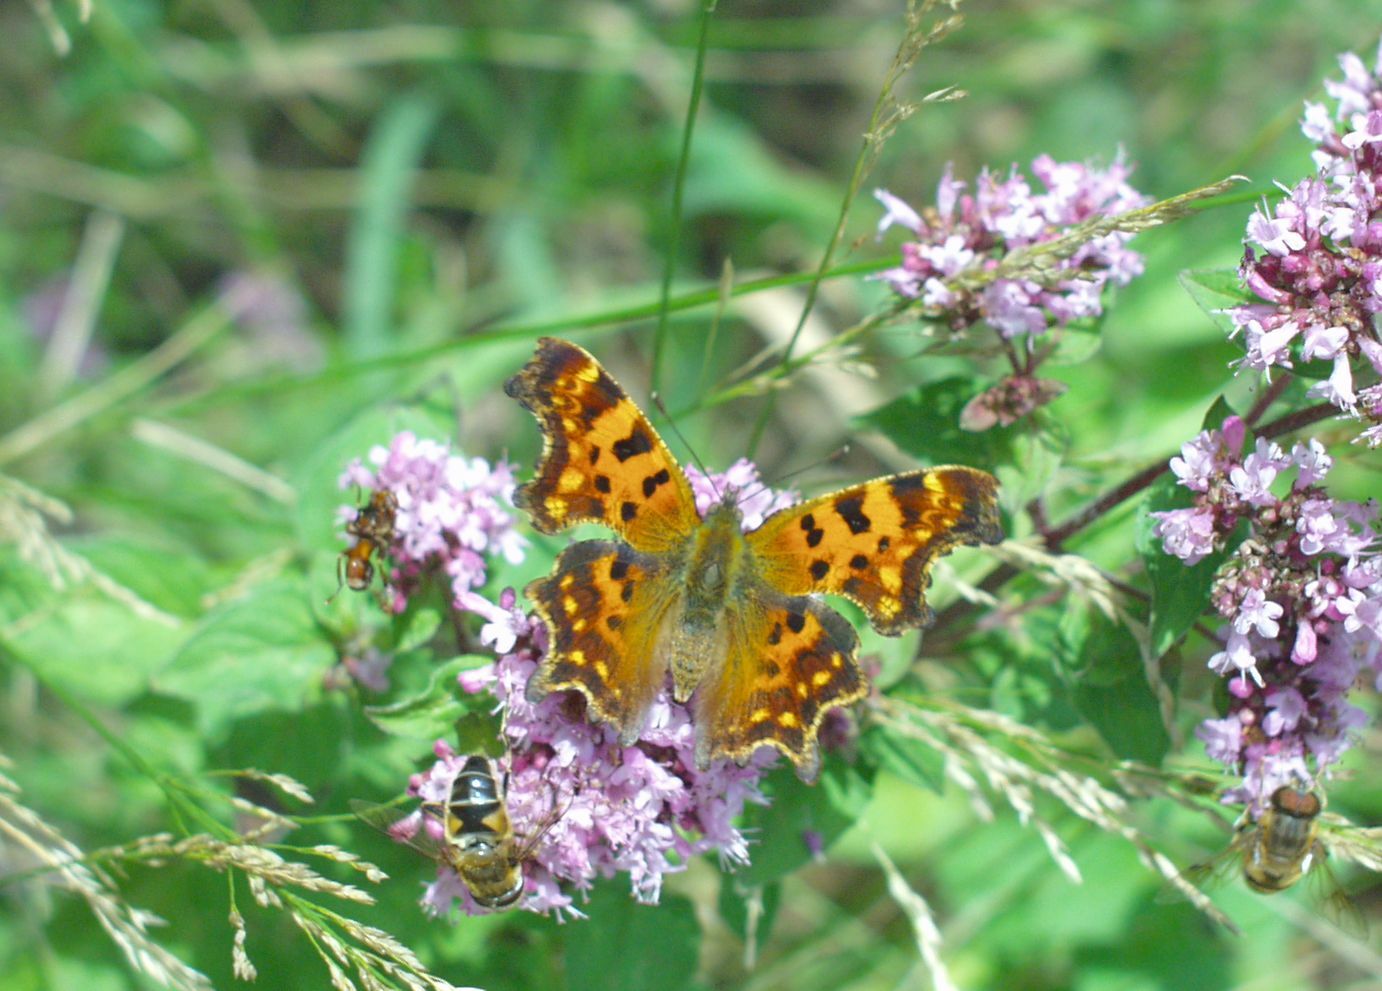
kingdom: Animalia
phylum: Arthropoda
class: Insecta
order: Lepidoptera
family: Nymphalidae
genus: Polygonia
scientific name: Polygonia c-album
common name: Comma
